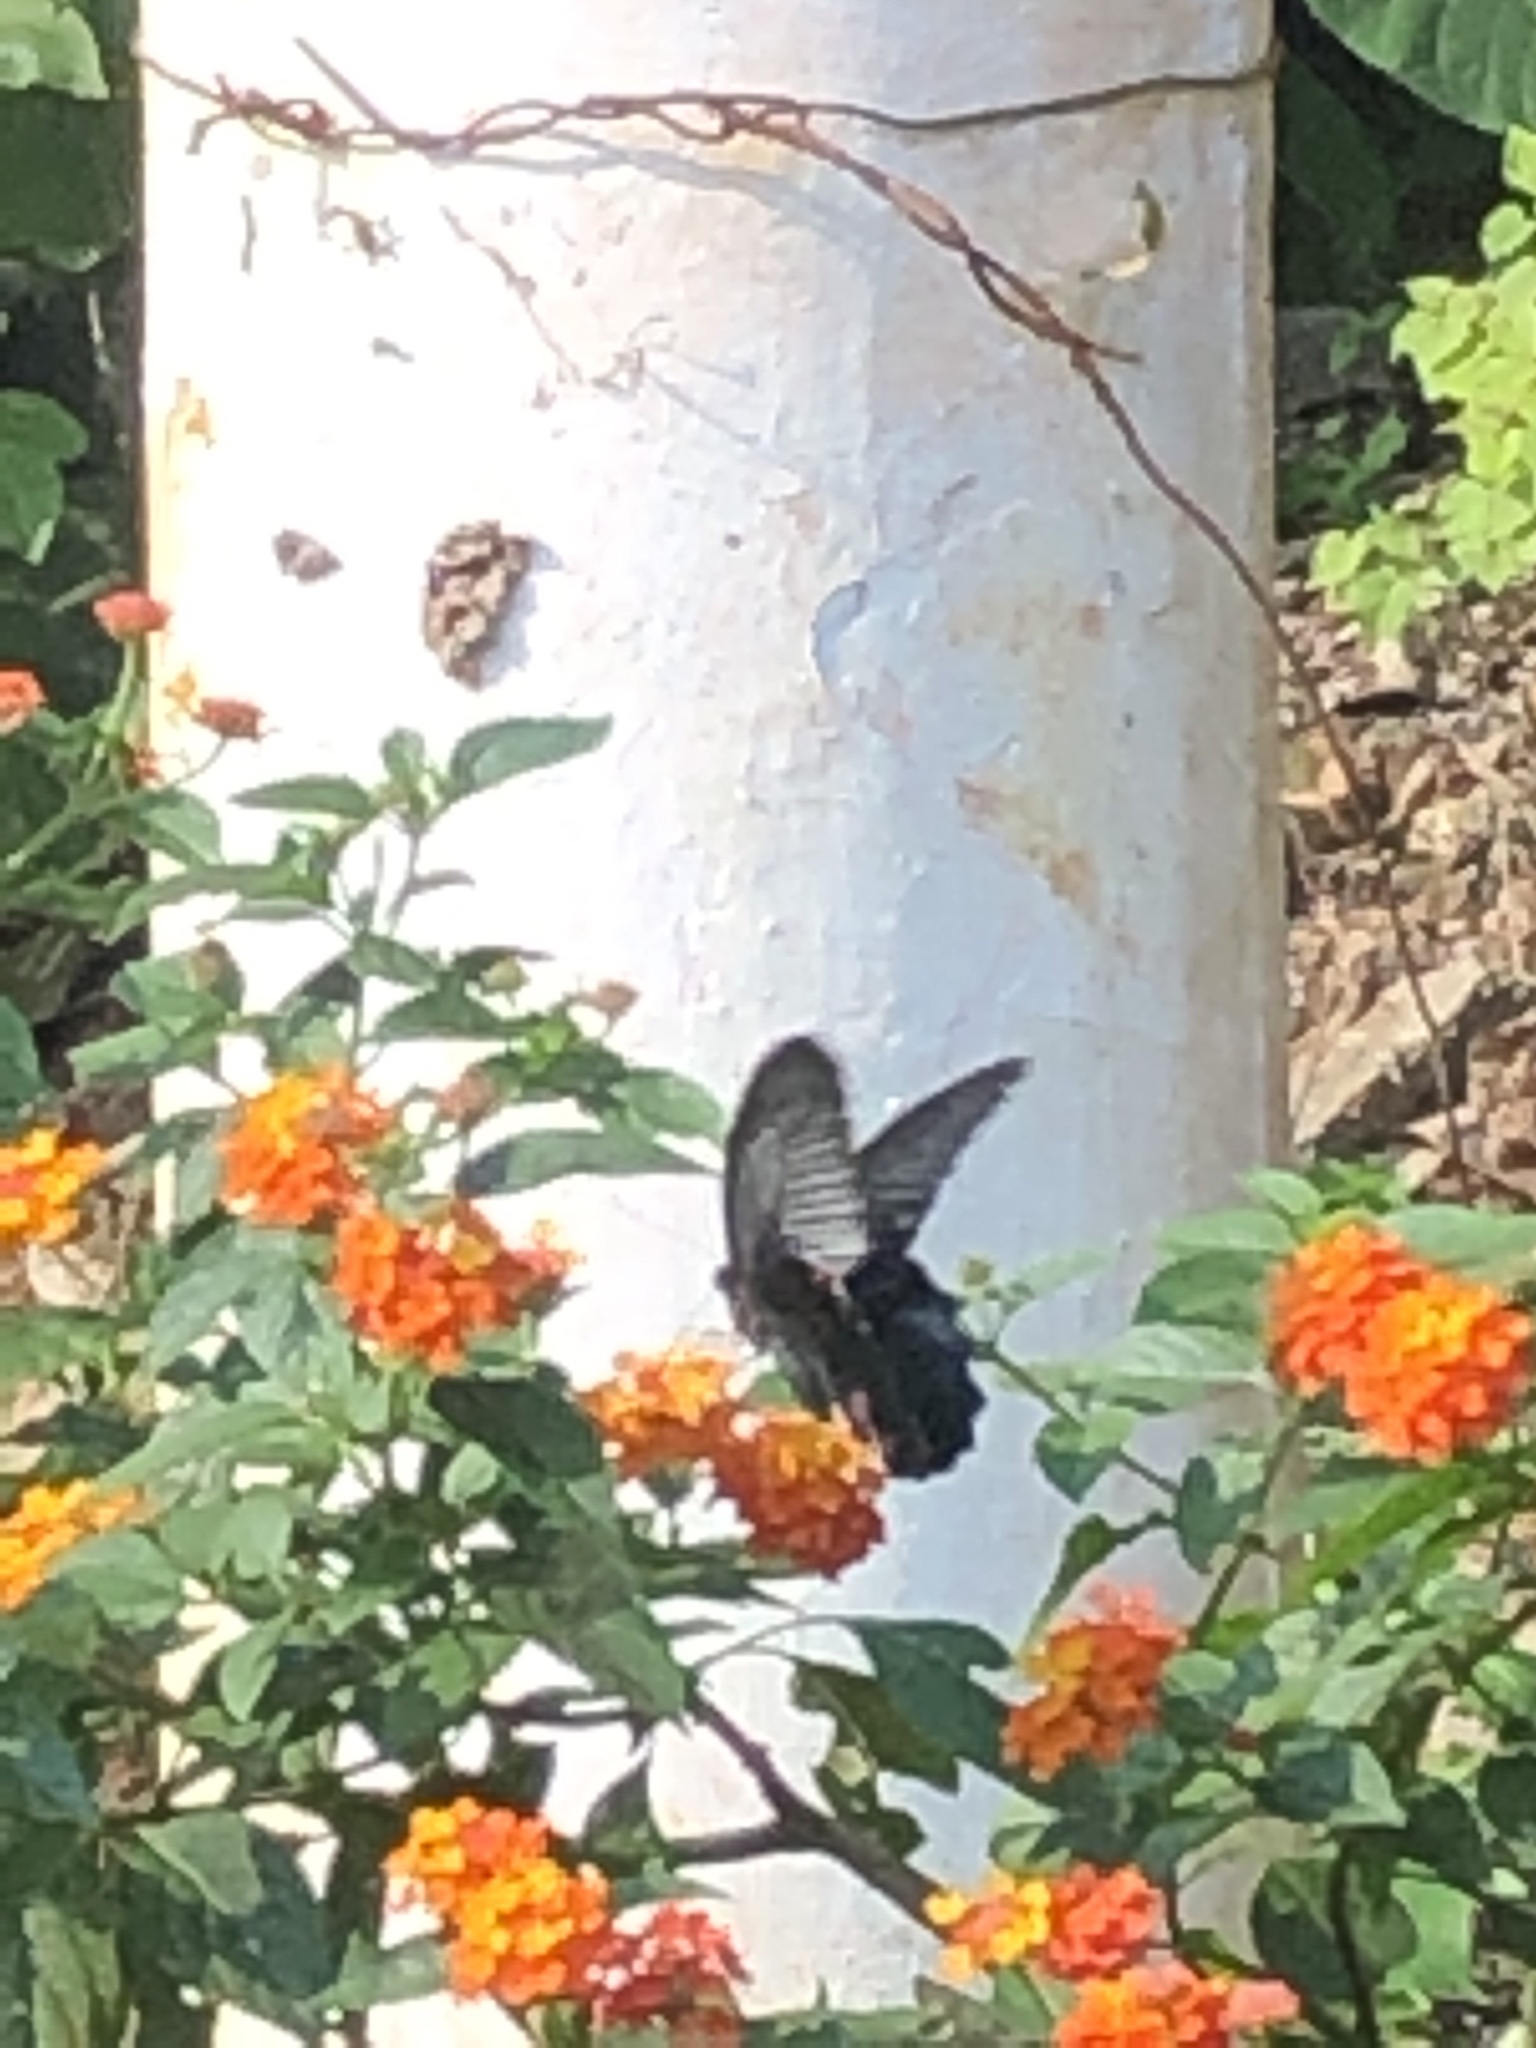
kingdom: Animalia
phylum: Arthropoda
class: Insecta
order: Lepidoptera
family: Papilionidae
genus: Papilio
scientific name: Papilio memnon
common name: Great mormon
